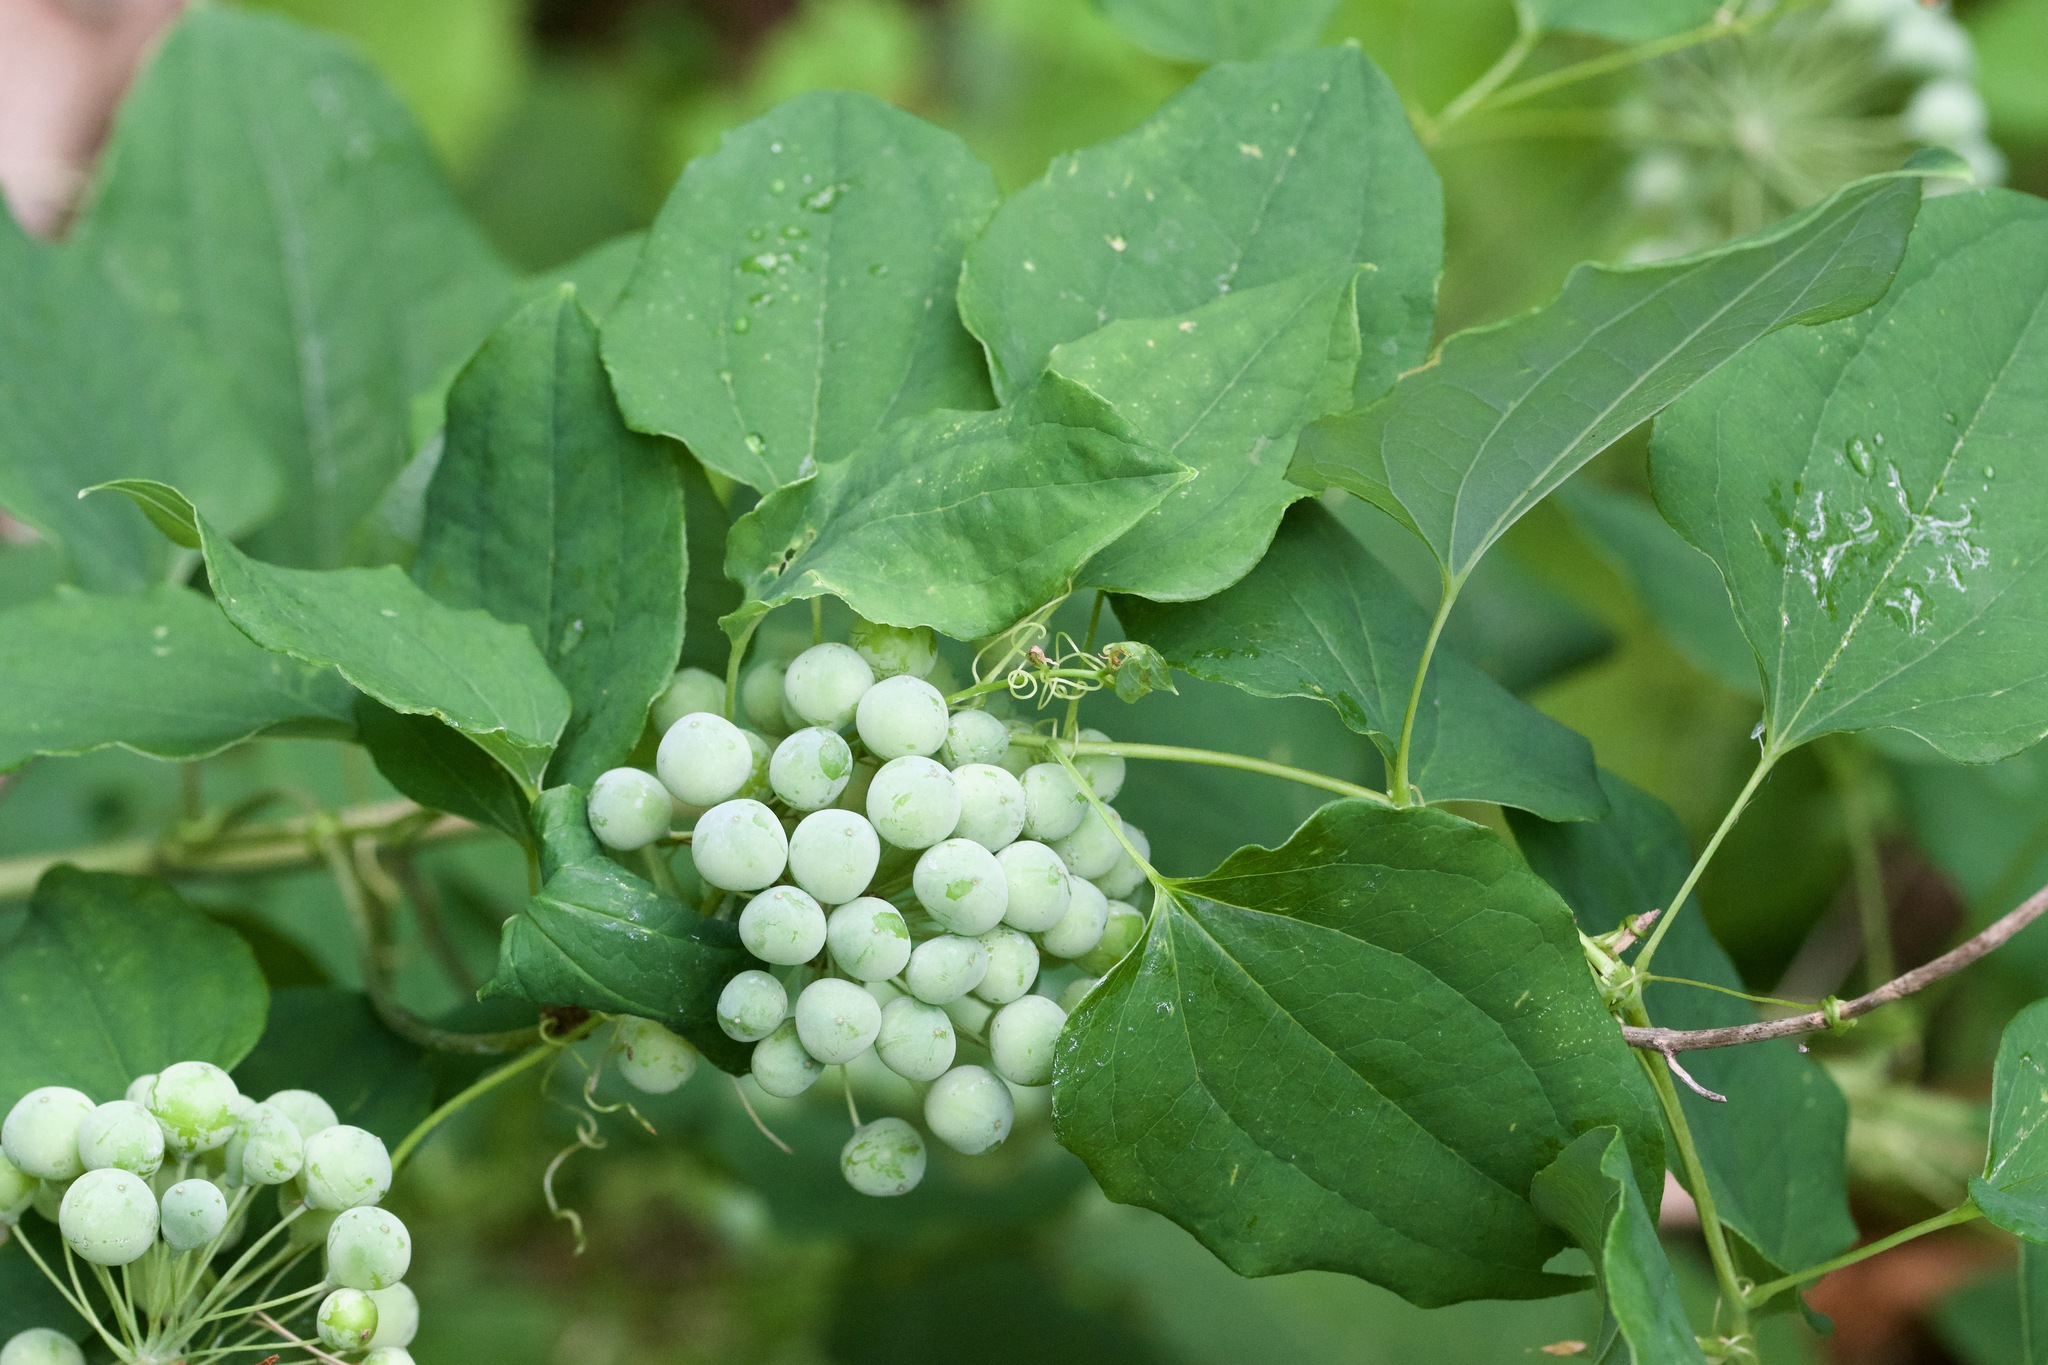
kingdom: Plantae
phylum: Tracheophyta
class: Liliopsida
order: Liliales
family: Smilacaceae
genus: Smilax
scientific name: Smilax herbacea
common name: Jacob's-ladder
